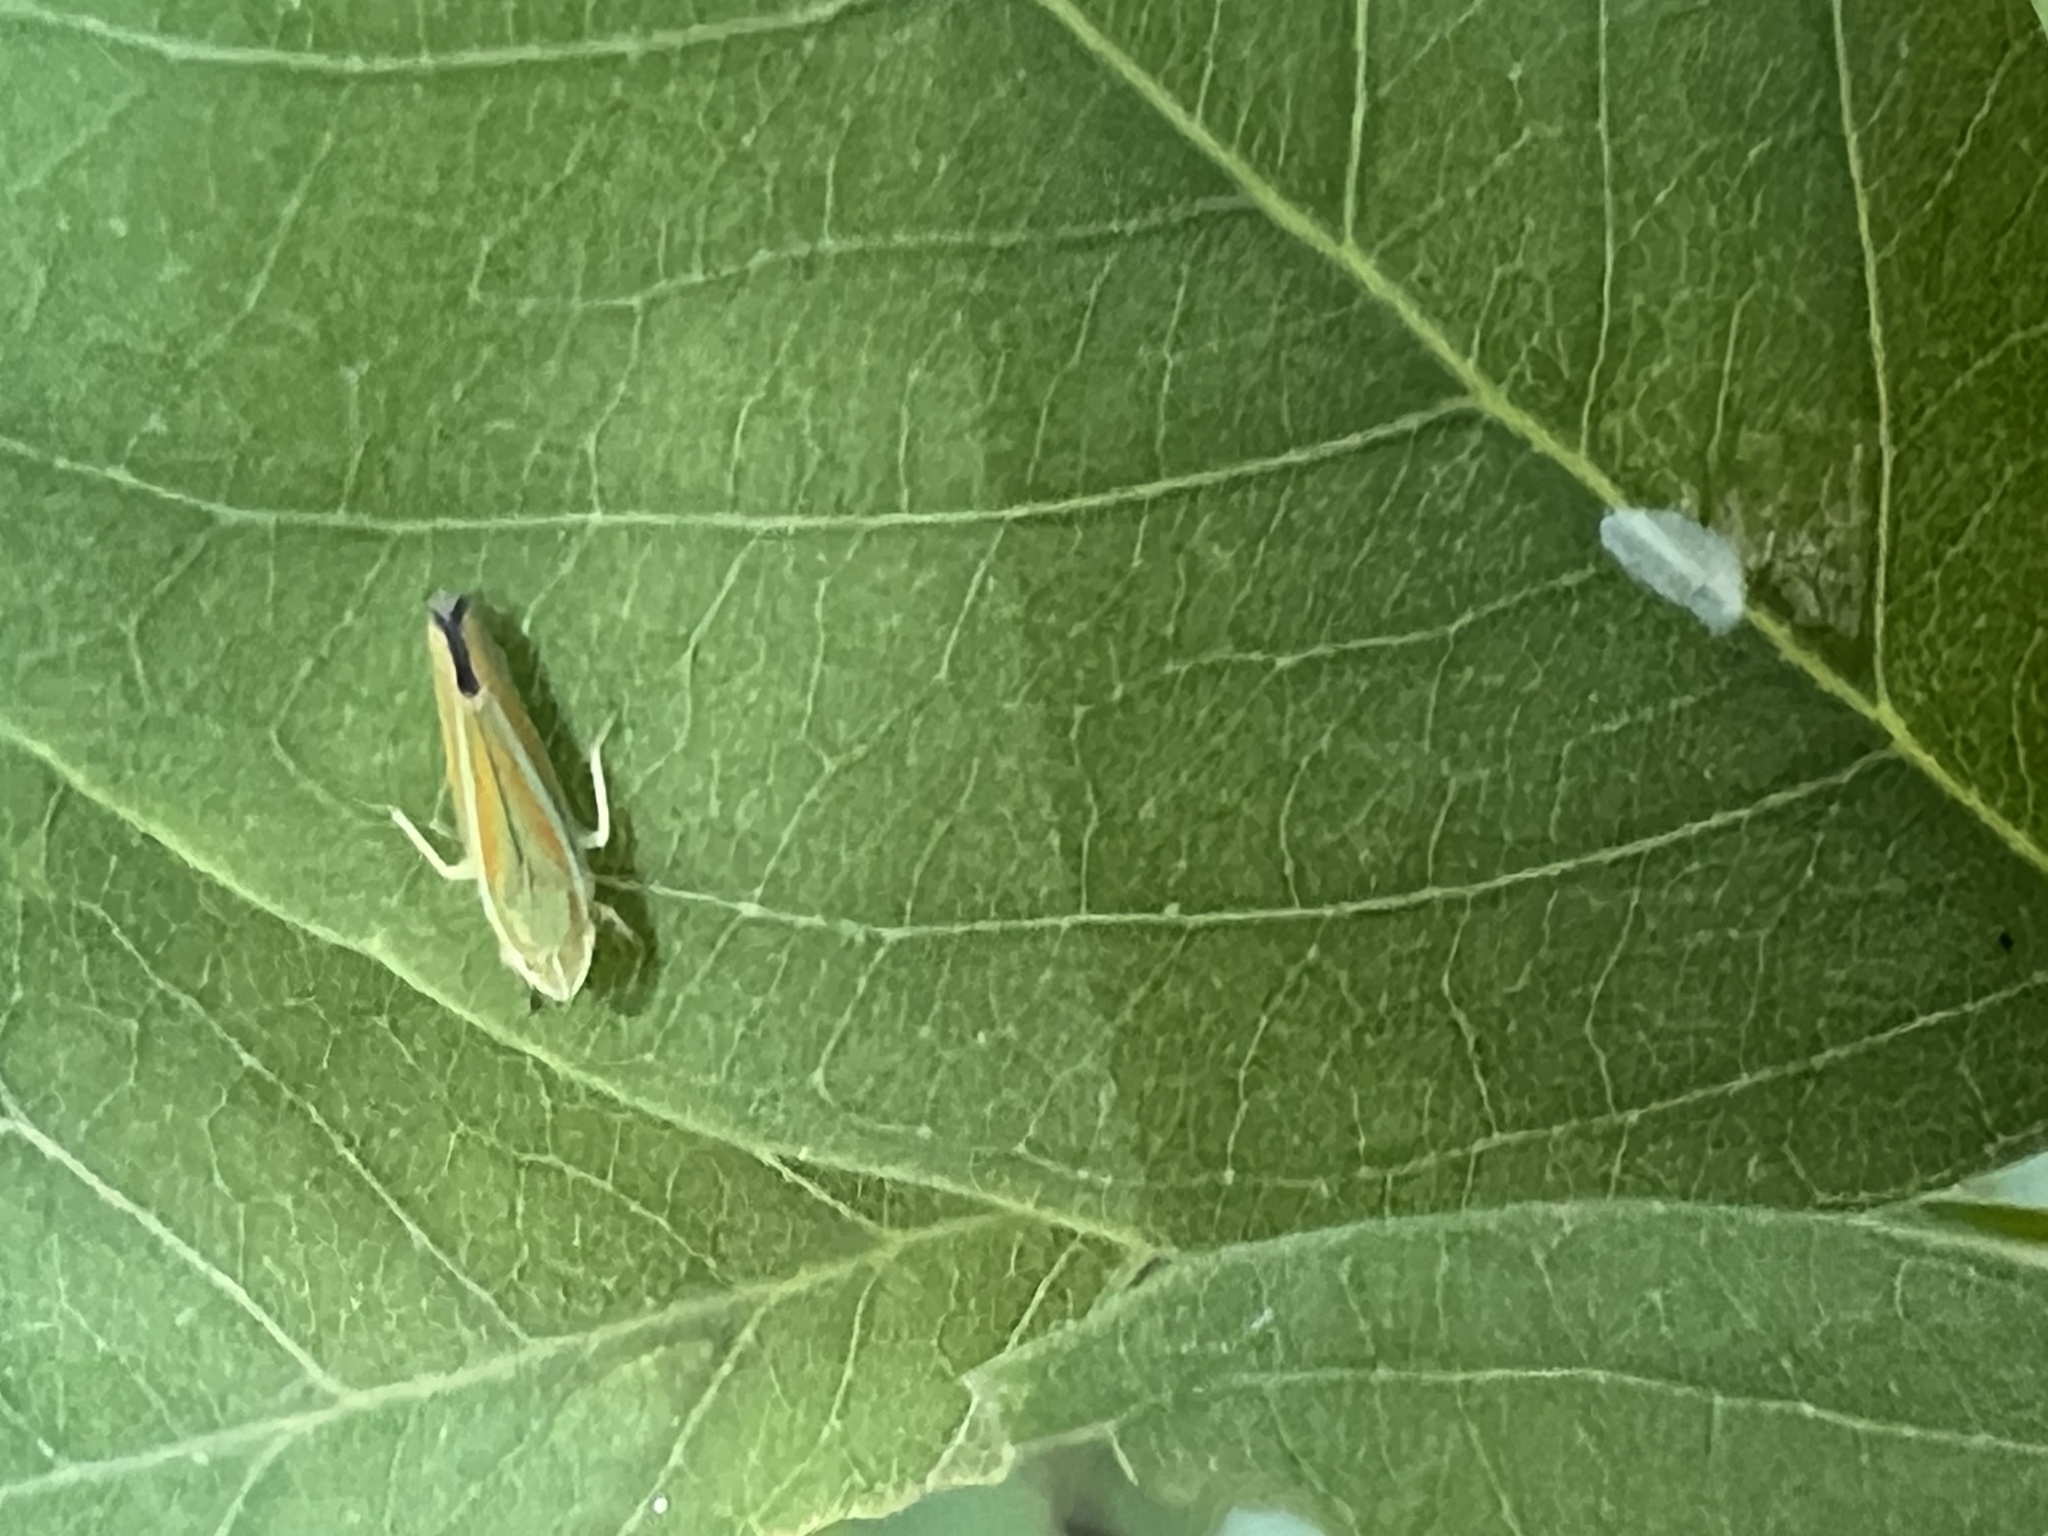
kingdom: Animalia
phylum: Arthropoda
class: Insecta
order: Hemiptera
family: Cicadellidae
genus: Graphocephala
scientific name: Graphocephala versuta
